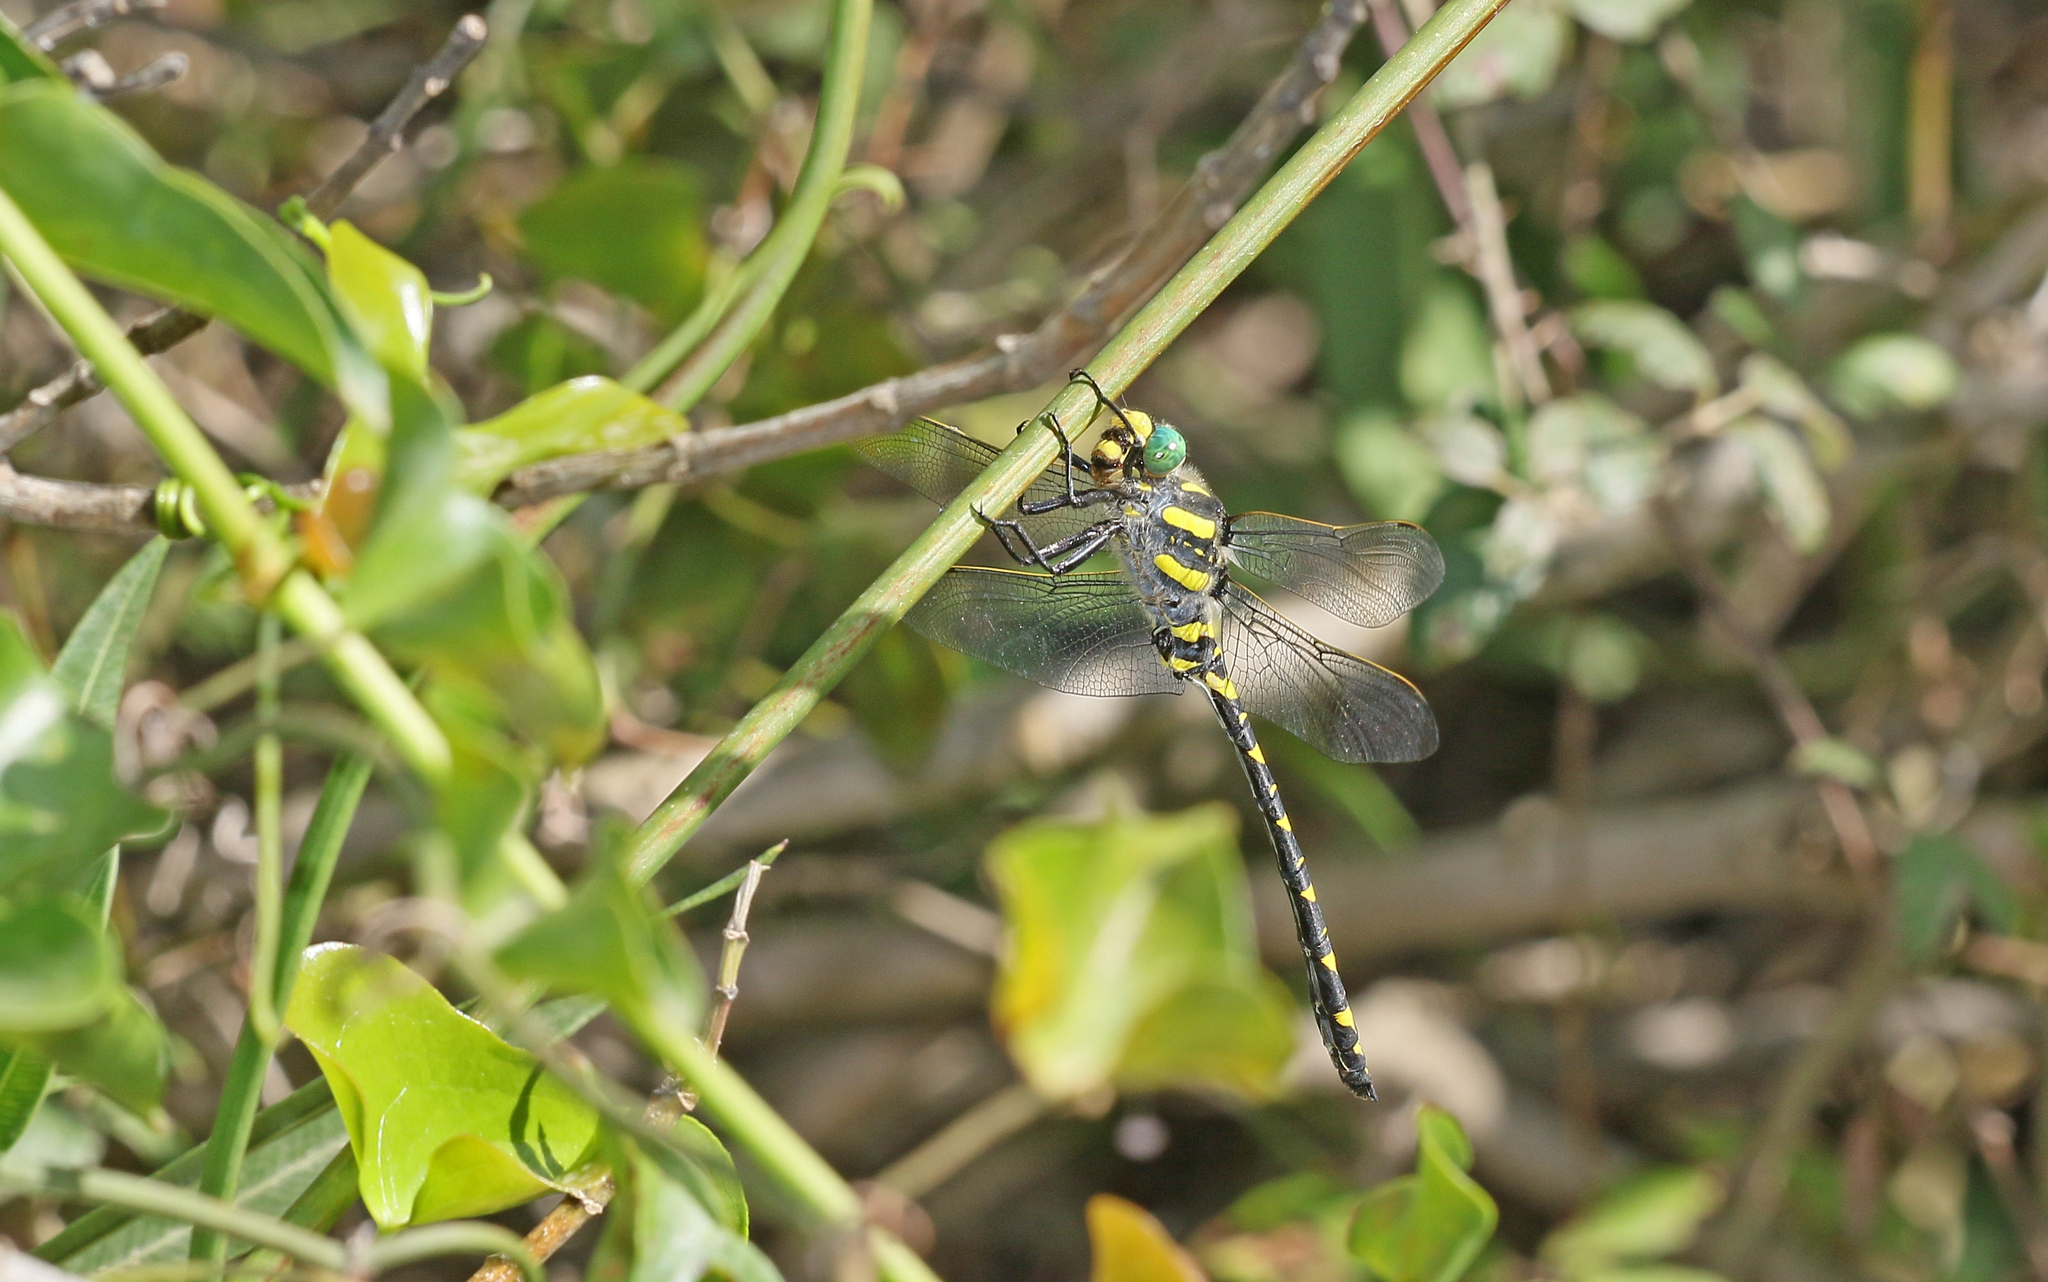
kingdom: Animalia
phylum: Arthropoda
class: Insecta
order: Odonata
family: Cordulegastridae
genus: Cordulegaster
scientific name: Cordulegaster boltonii
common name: Golden-ringed dragonfly
